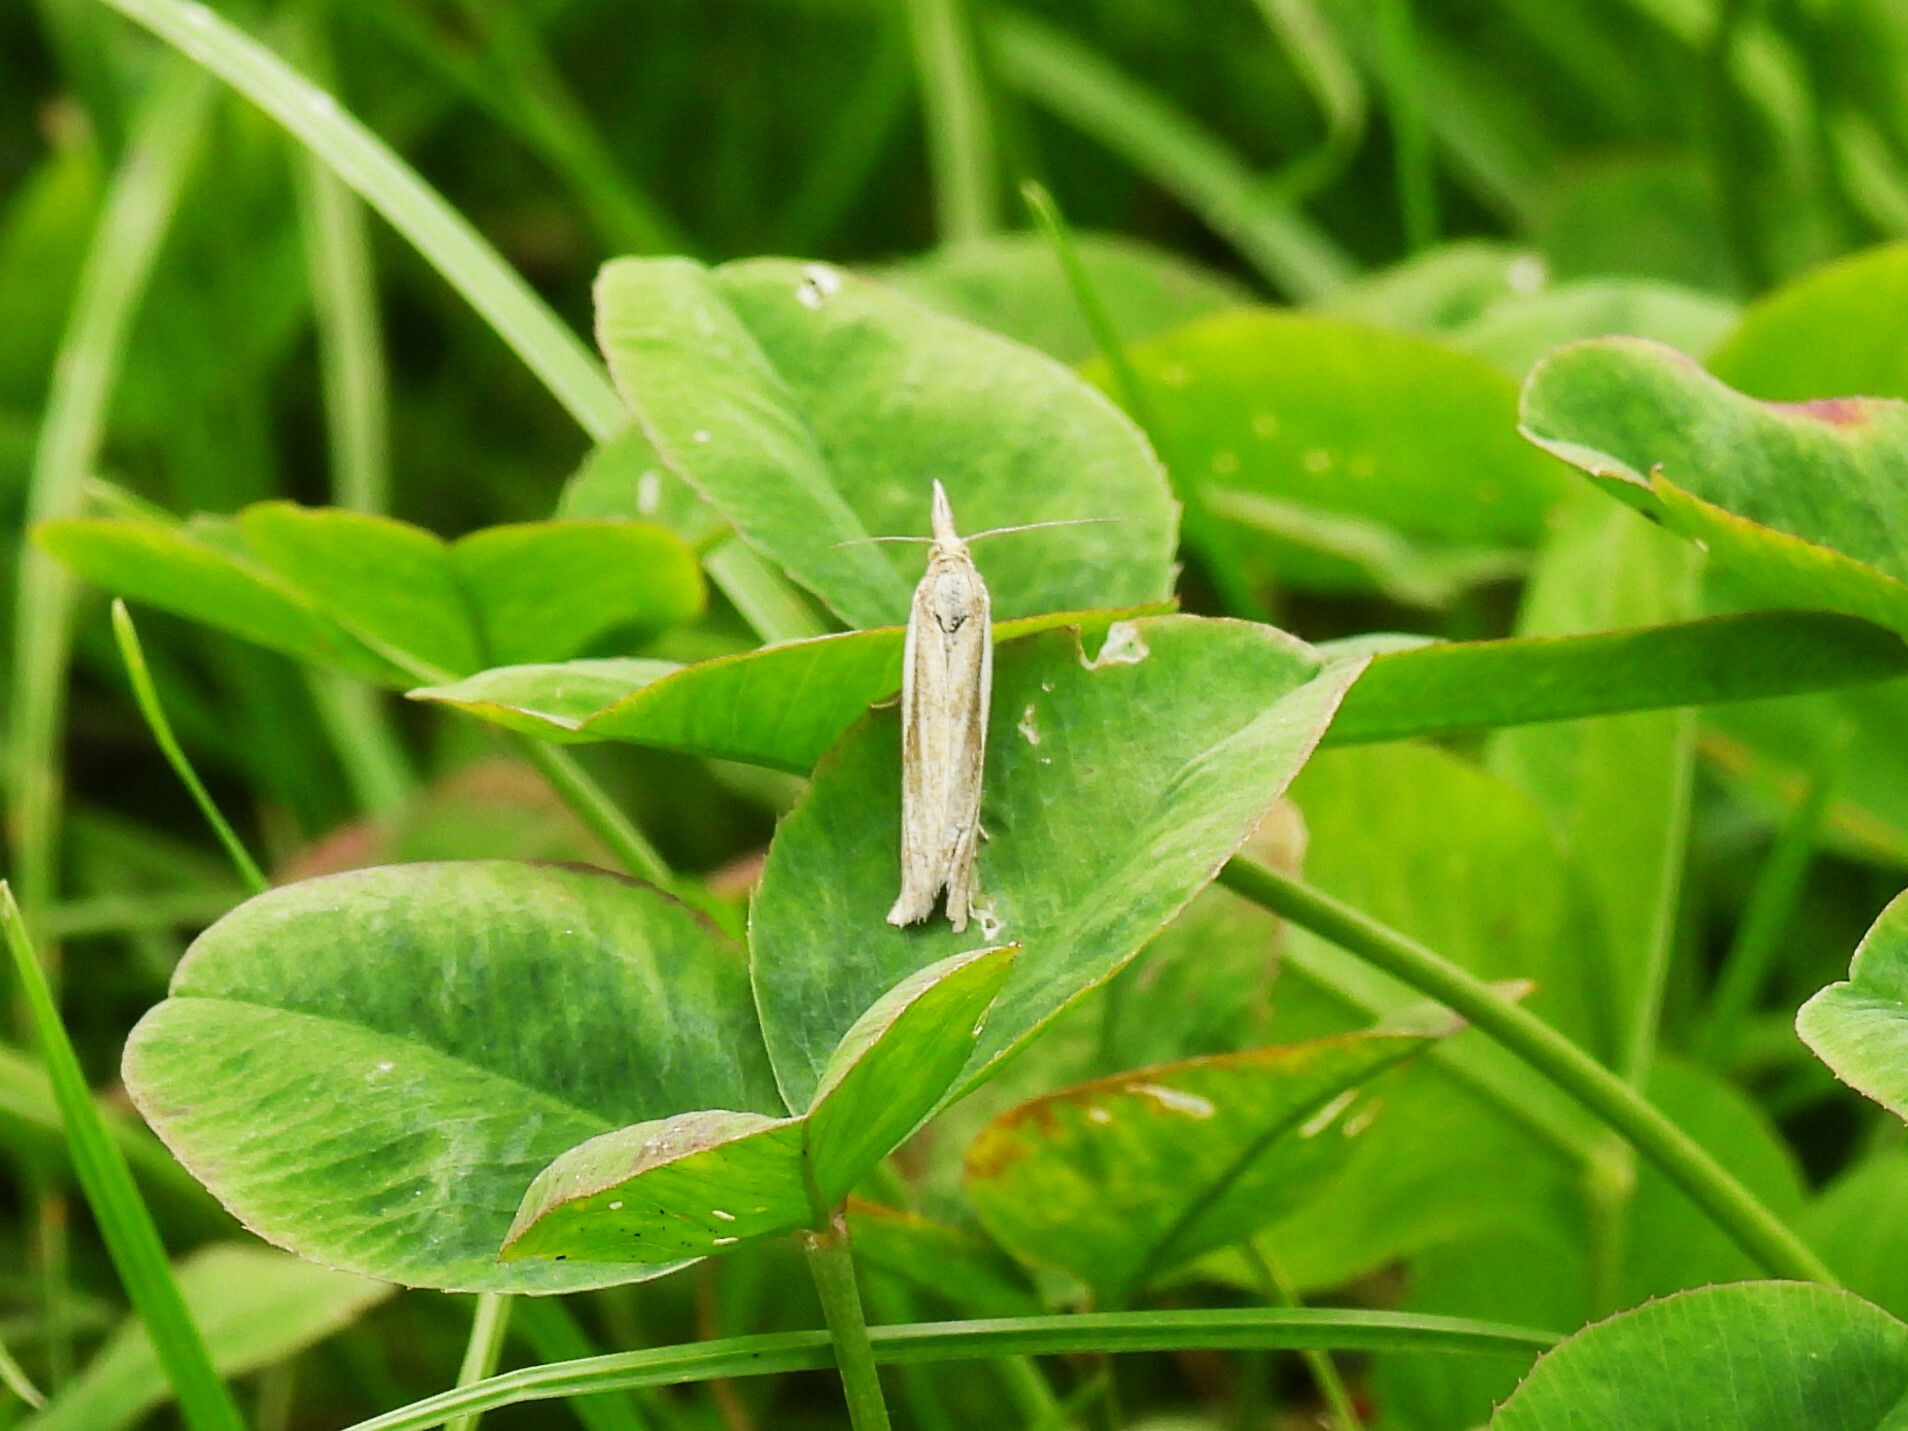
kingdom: Animalia
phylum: Arthropoda
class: Insecta
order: Lepidoptera
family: Crambidae
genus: Agriphila
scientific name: Agriphila tristellus
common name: Common grass-veneer
